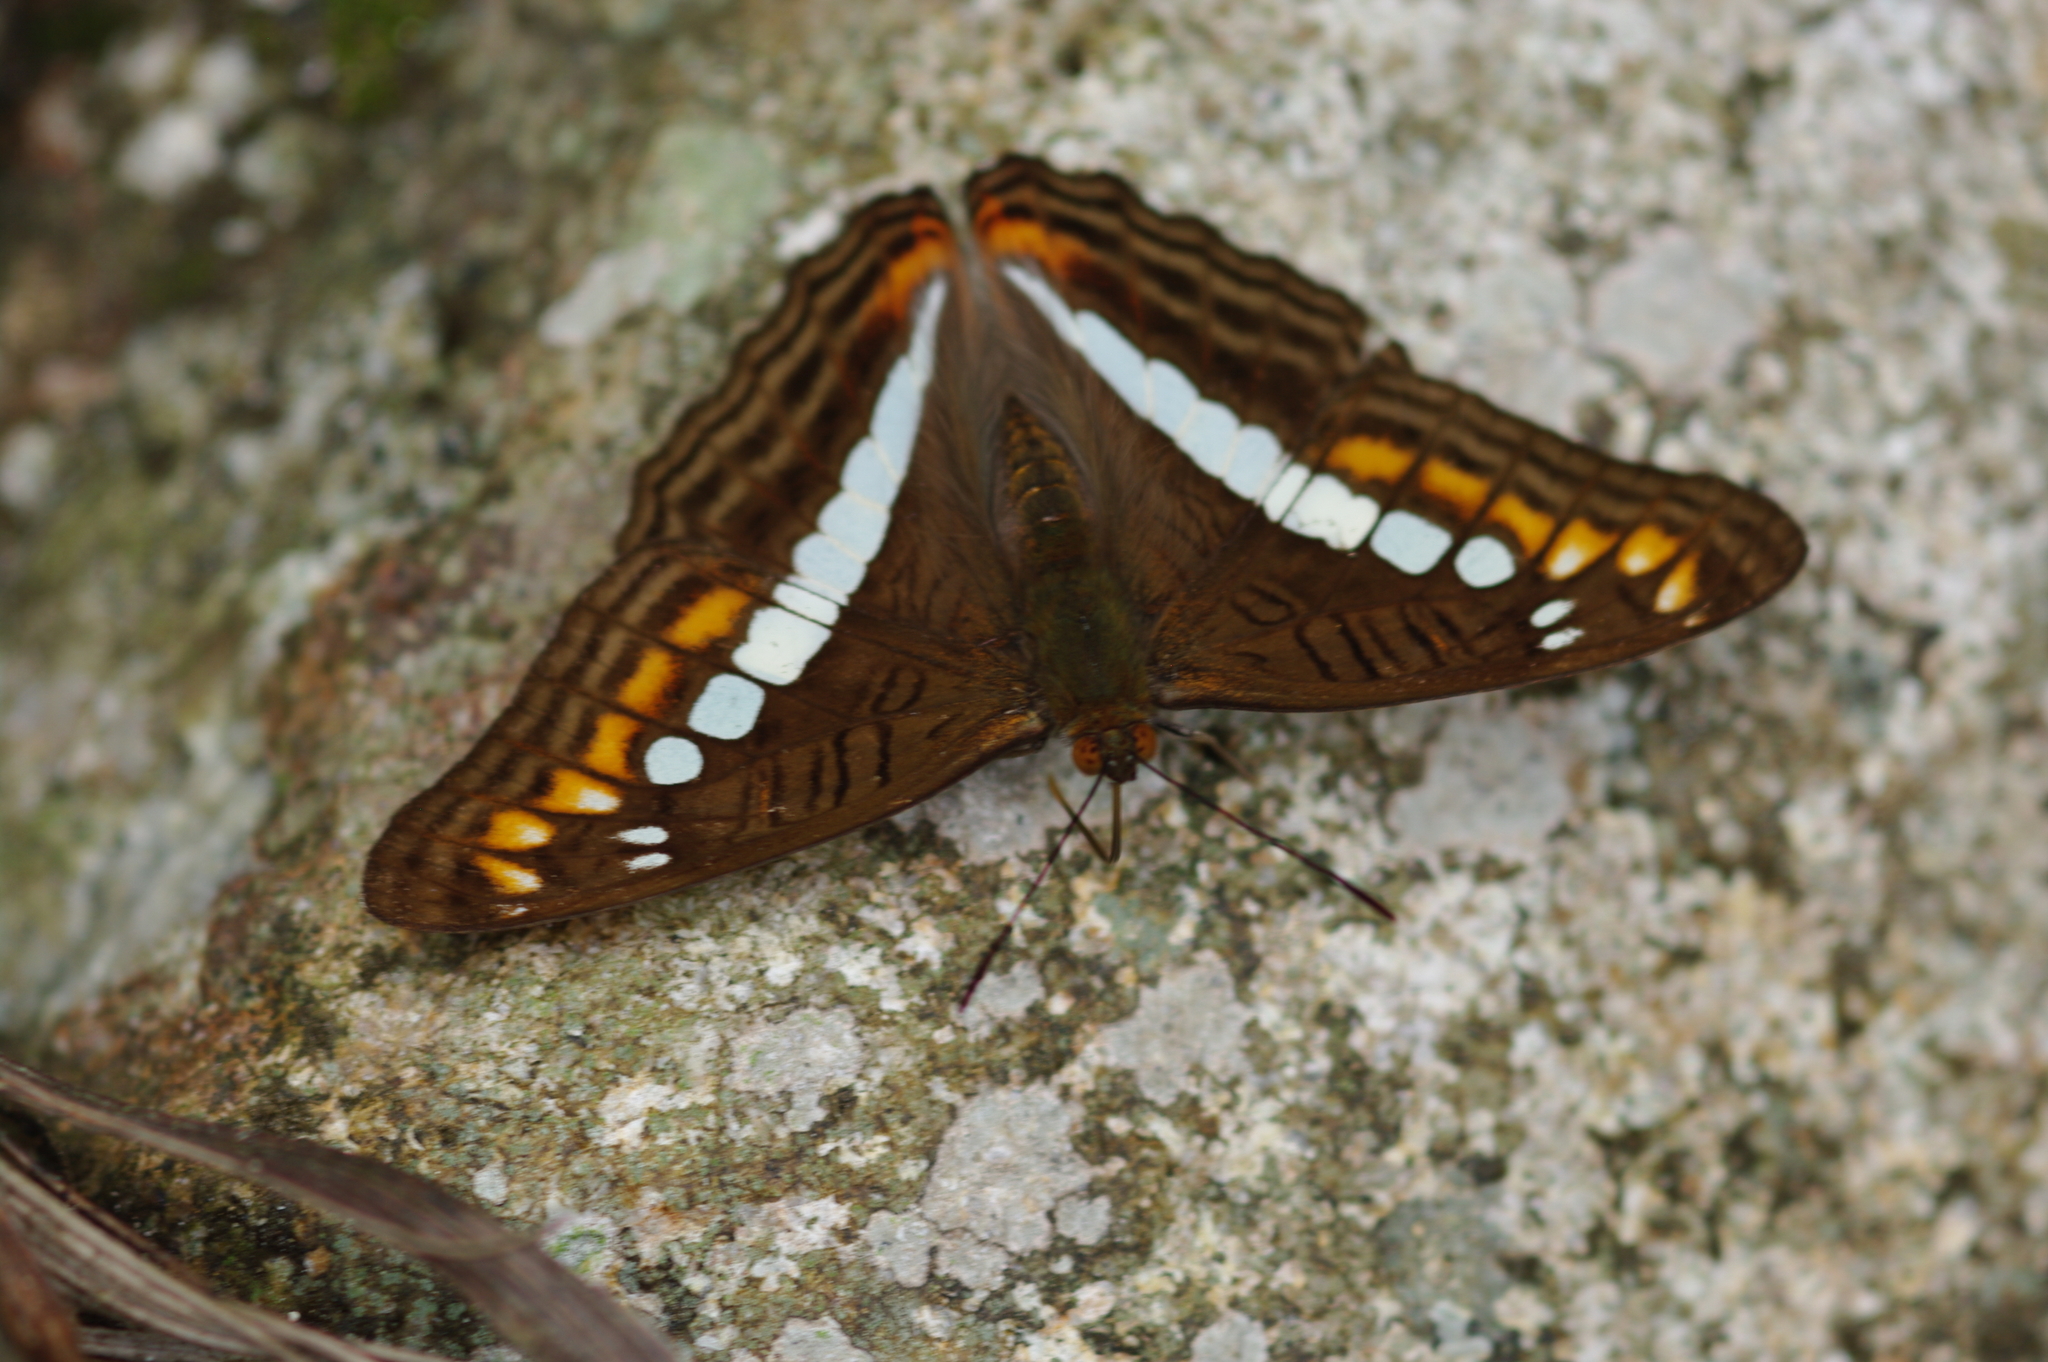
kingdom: Animalia
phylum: Arthropoda
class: Insecta
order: Lepidoptera
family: Nymphalidae
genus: Limenitis
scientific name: Limenitis alala
